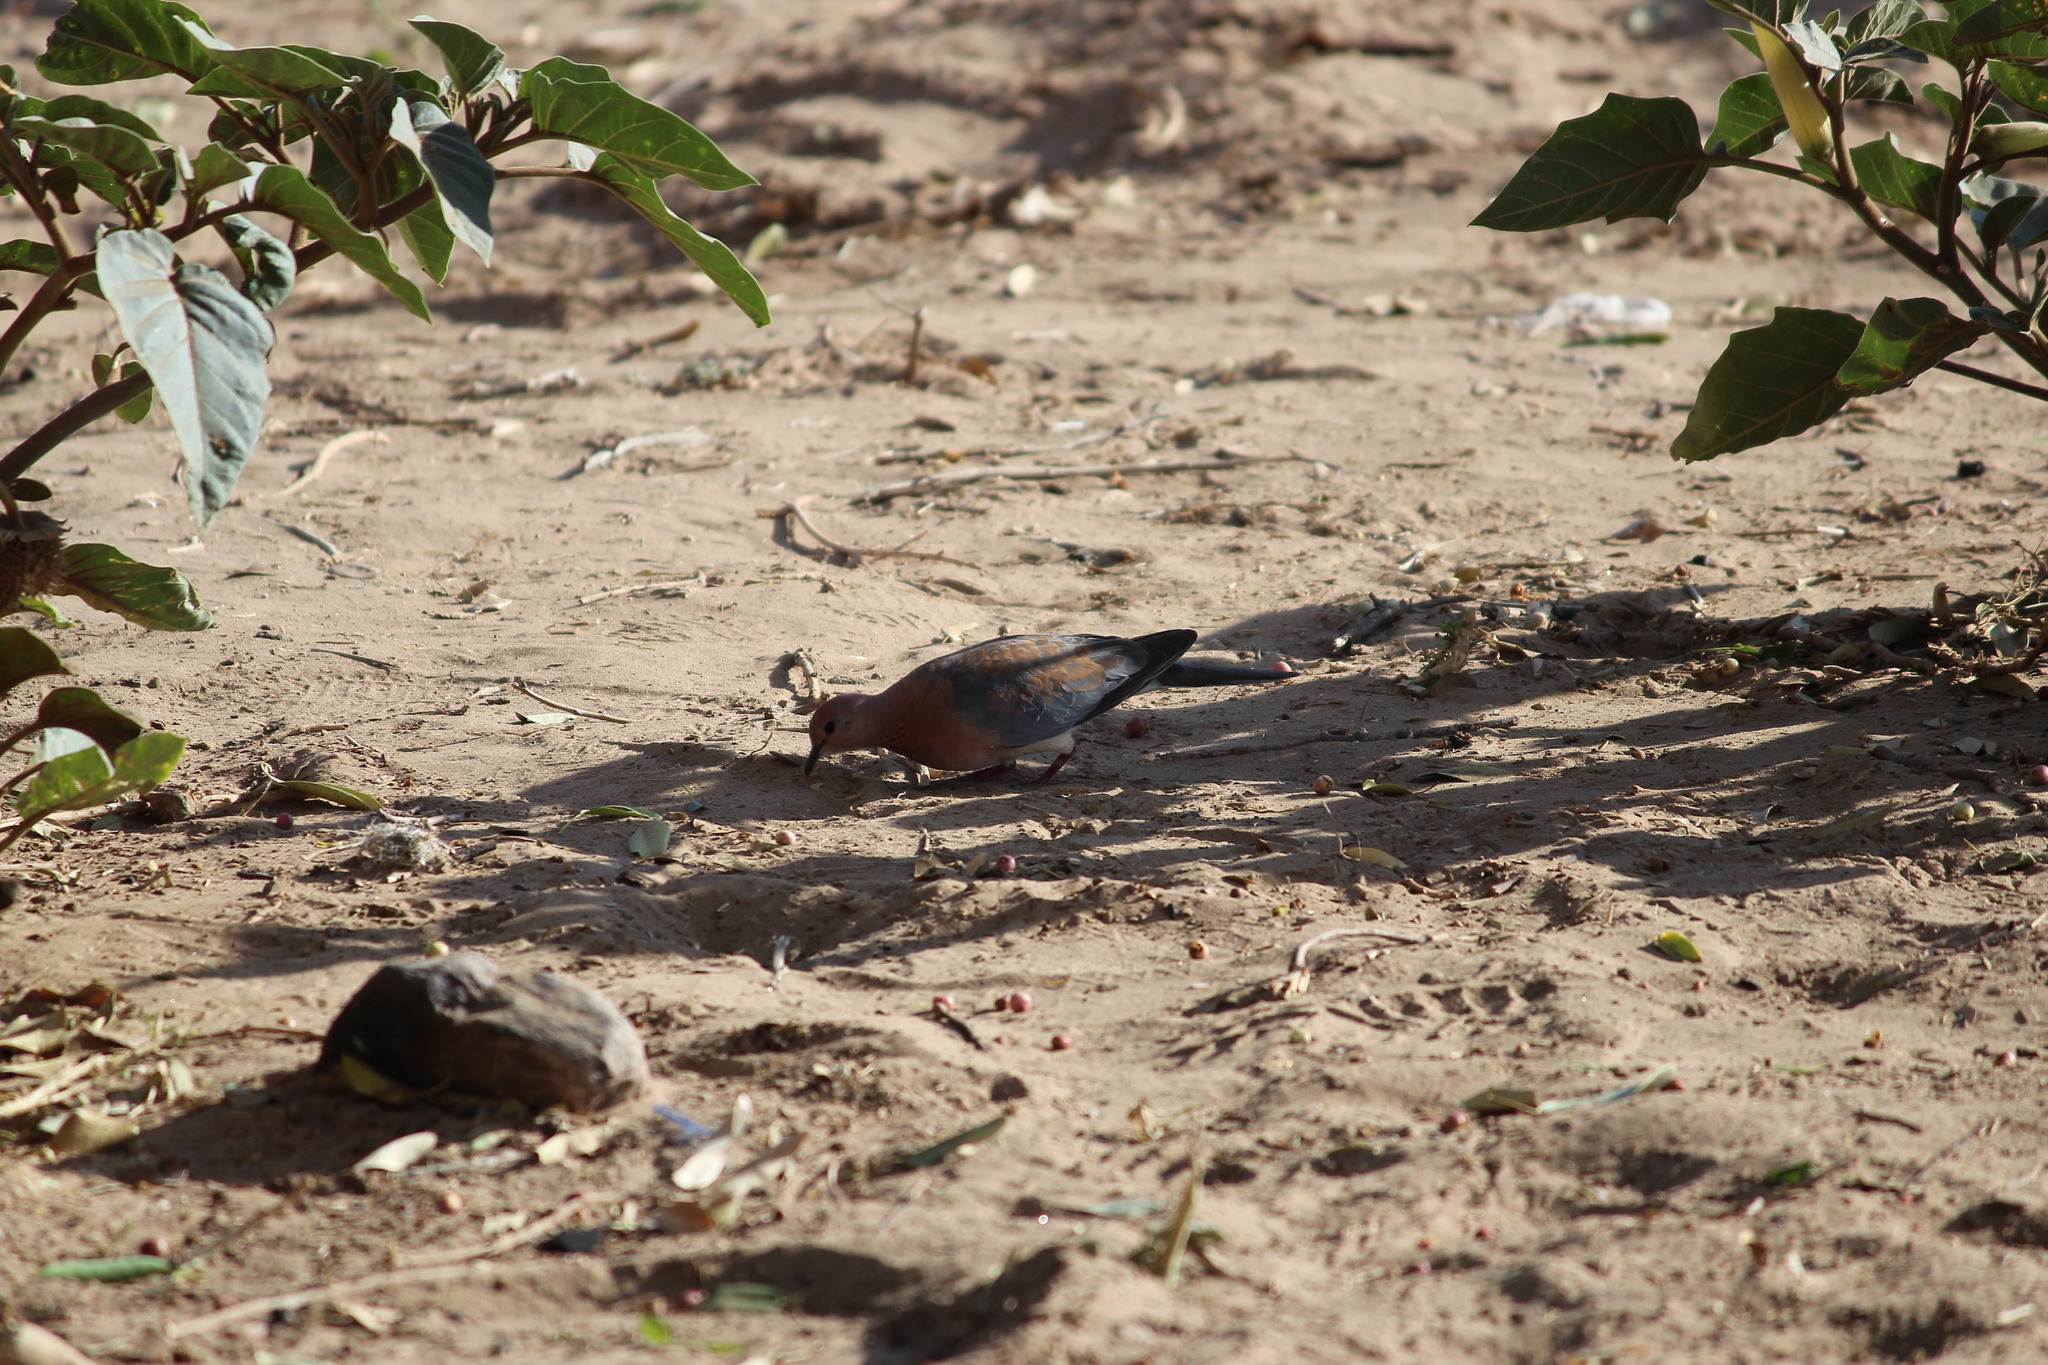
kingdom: Animalia
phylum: Chordata
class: Aves
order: Columbiformes
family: Columbidae
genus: Spilopelia
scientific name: Spilopelia senegalensis
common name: Laughing dove
